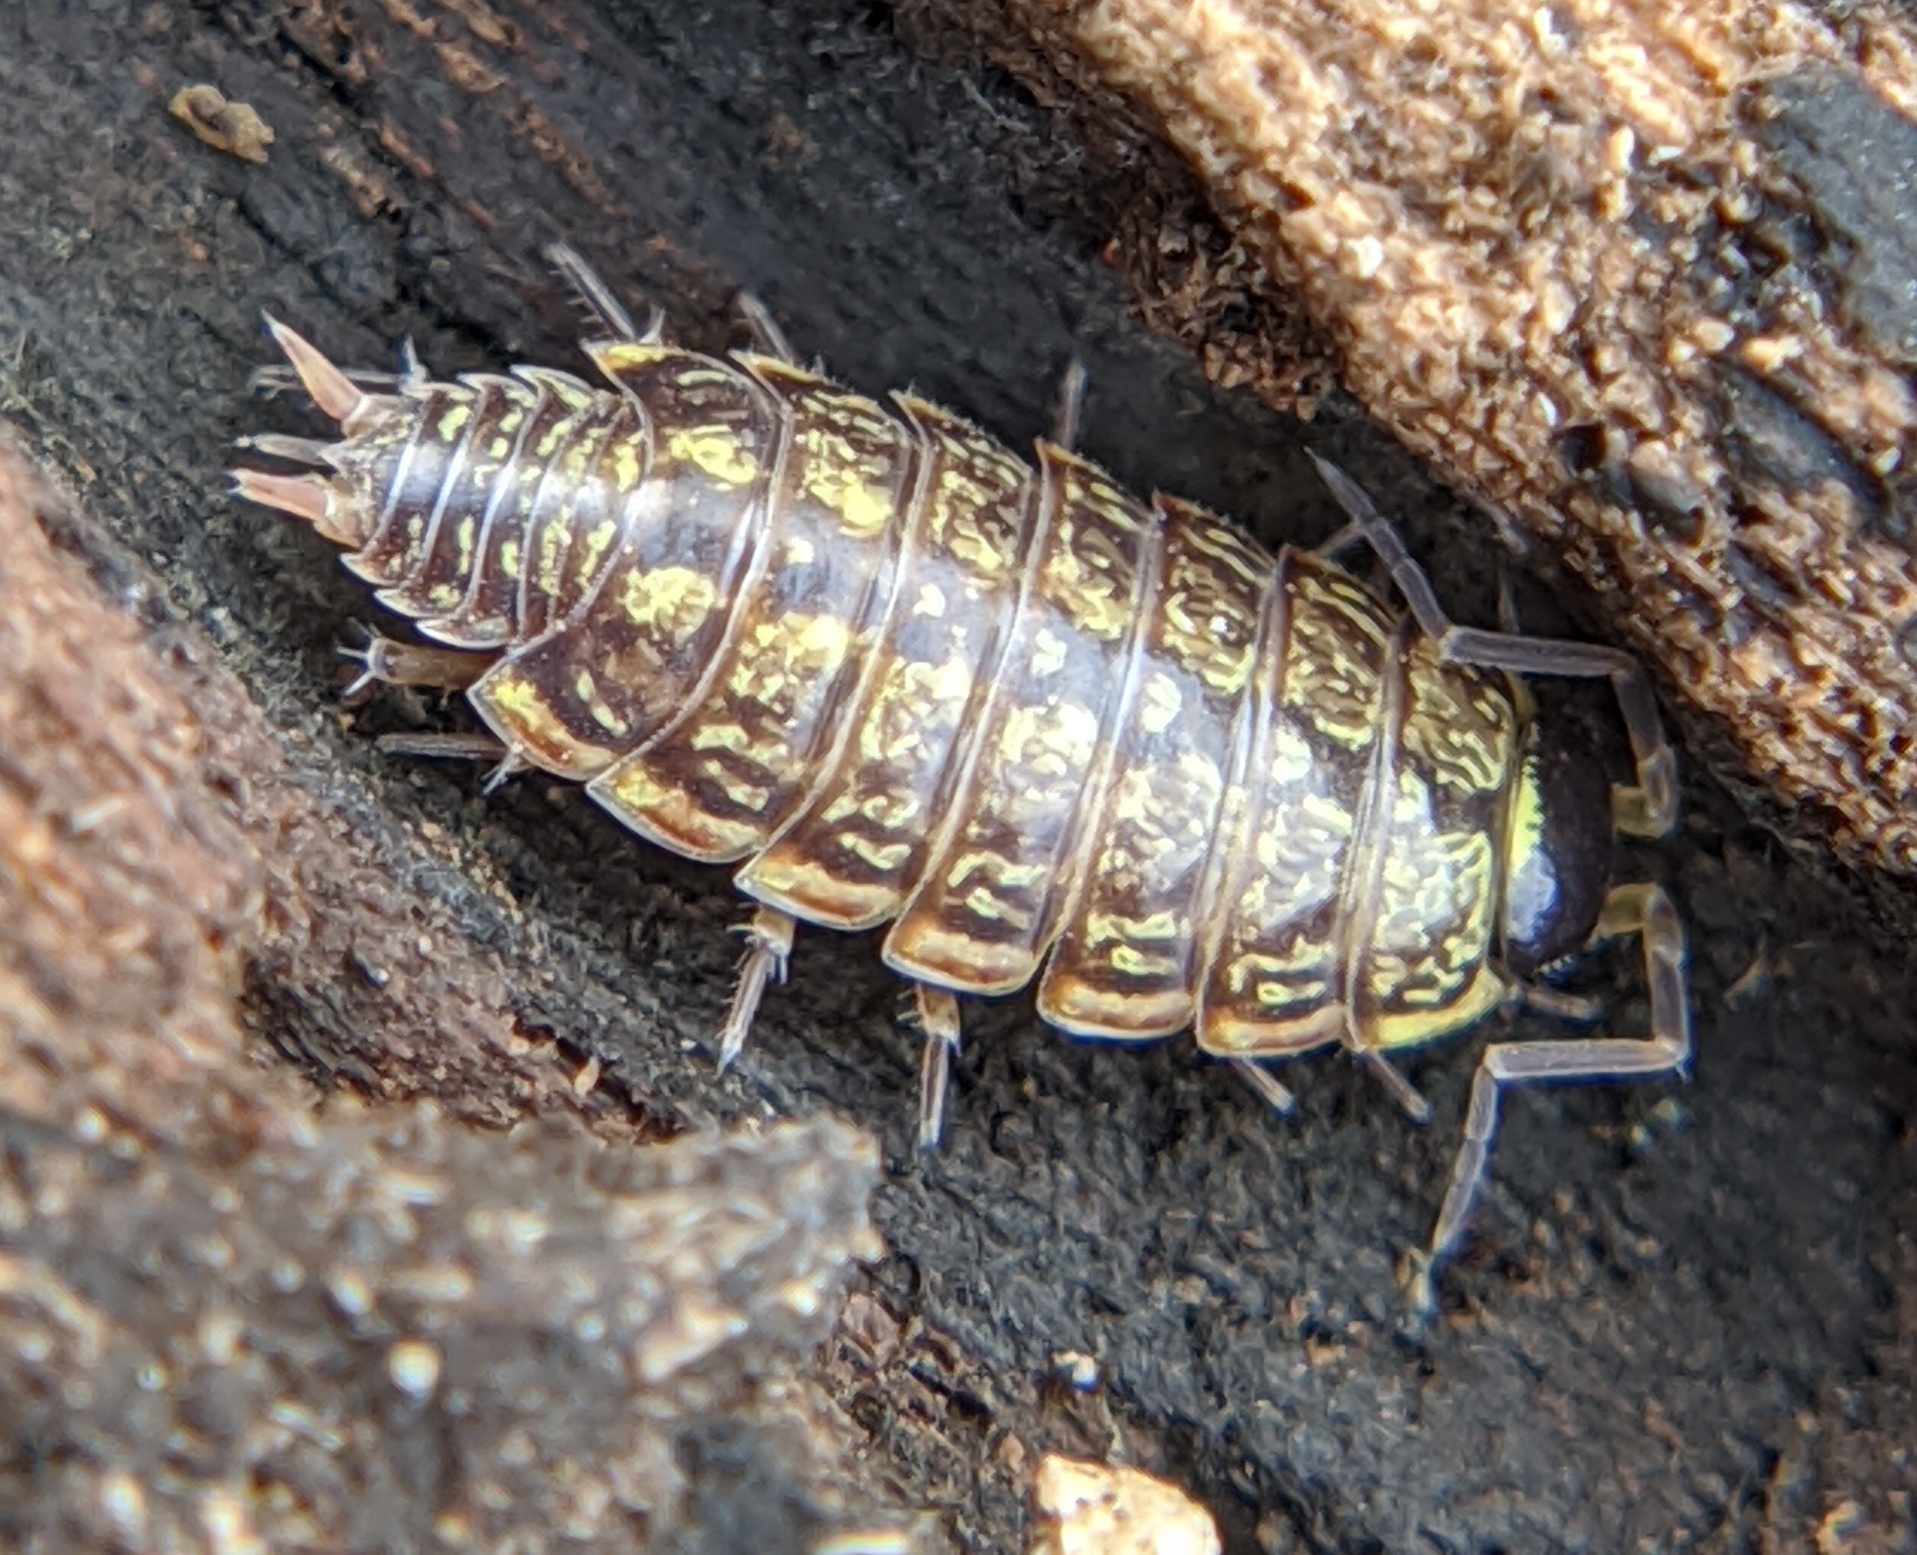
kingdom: Animalia
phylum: Arthropoda
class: Malacostraca
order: Isopoda
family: Philosciidae
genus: Philoscia
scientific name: Philoscia muscorum
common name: Common striped woodlouse
